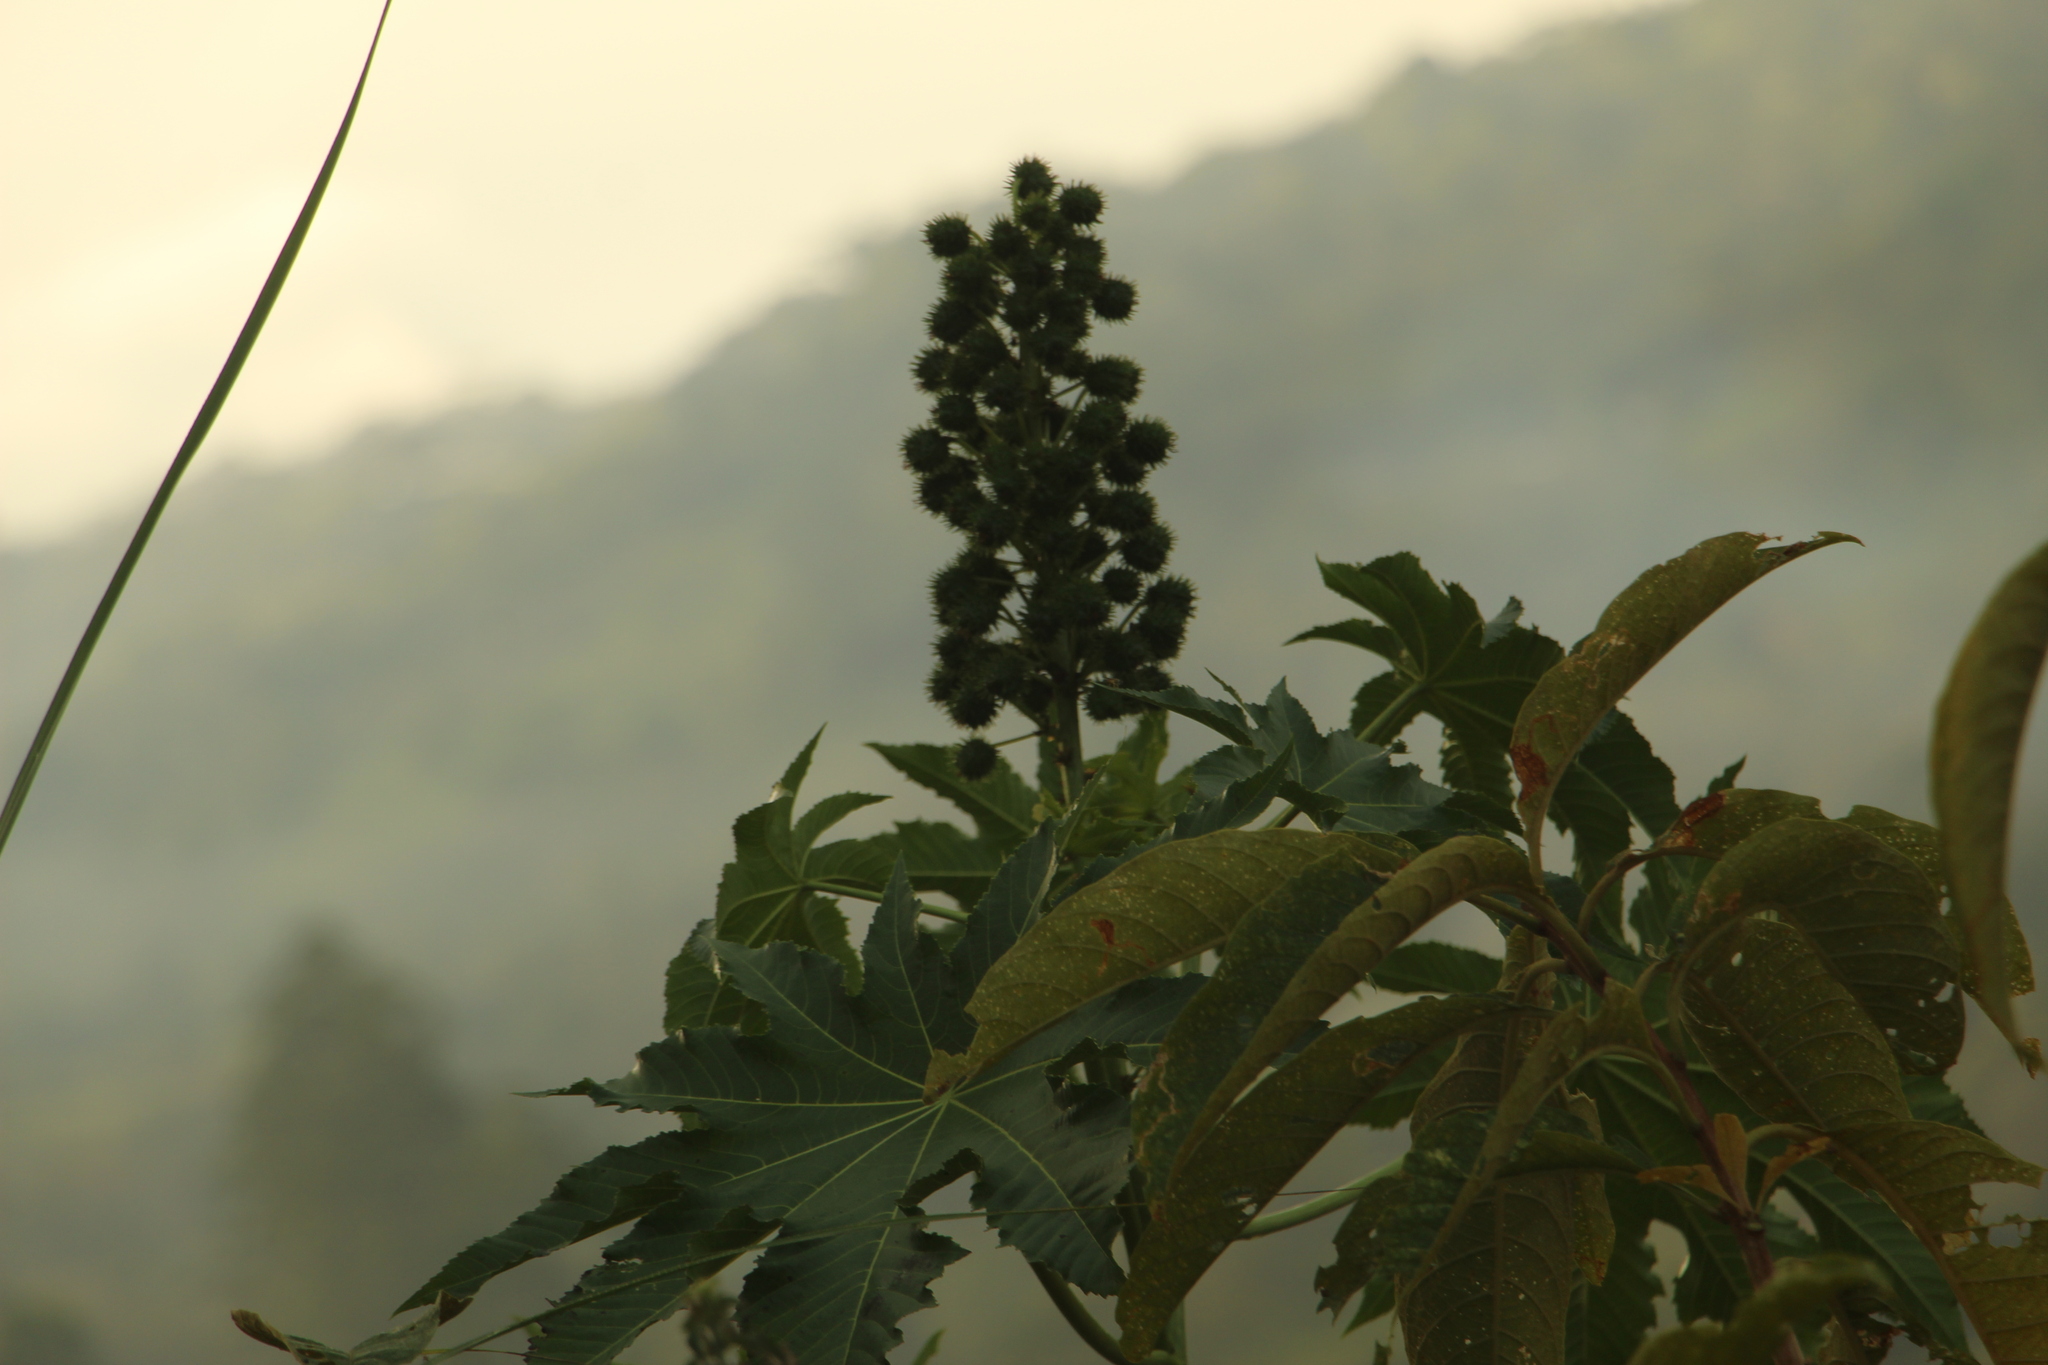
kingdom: Plantae
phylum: Tracheophyta
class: Magnoliopsida
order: Malpighiales
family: Euphorbiaceae
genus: Ricinus
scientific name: Ricinus communis
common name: Castor-oil-plant
